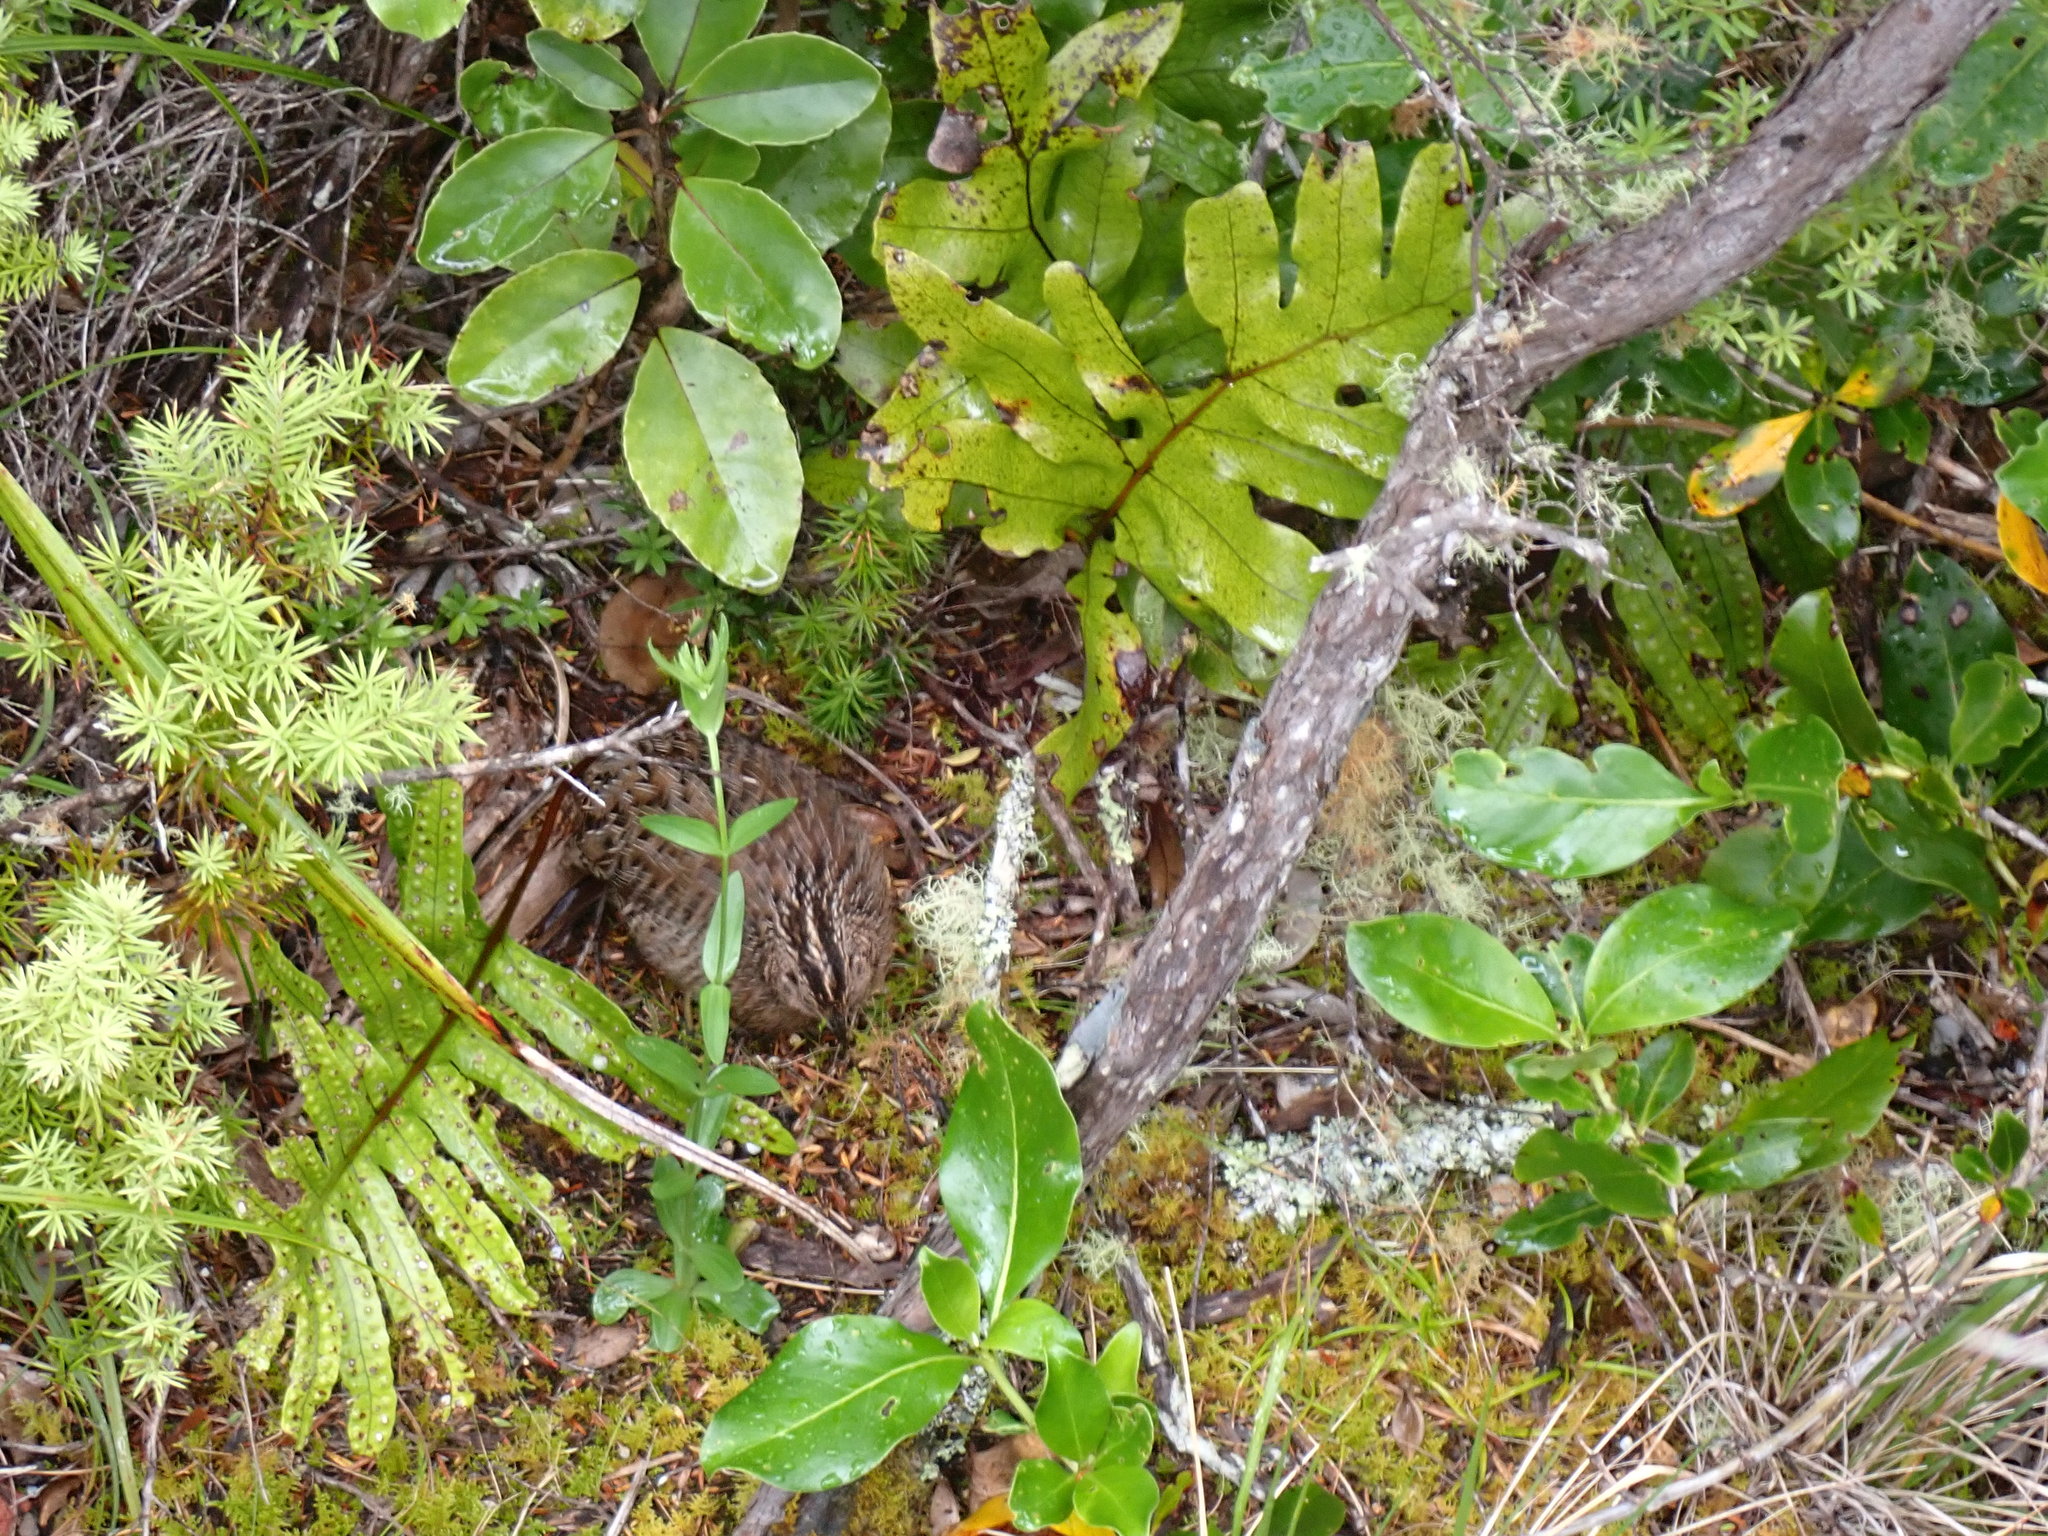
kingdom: Animalia
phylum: Chordata
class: Aves
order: Galliformes
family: Phasianidae
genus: Synoicus
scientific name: Synoicus ypsilophorus
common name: Brown quail
